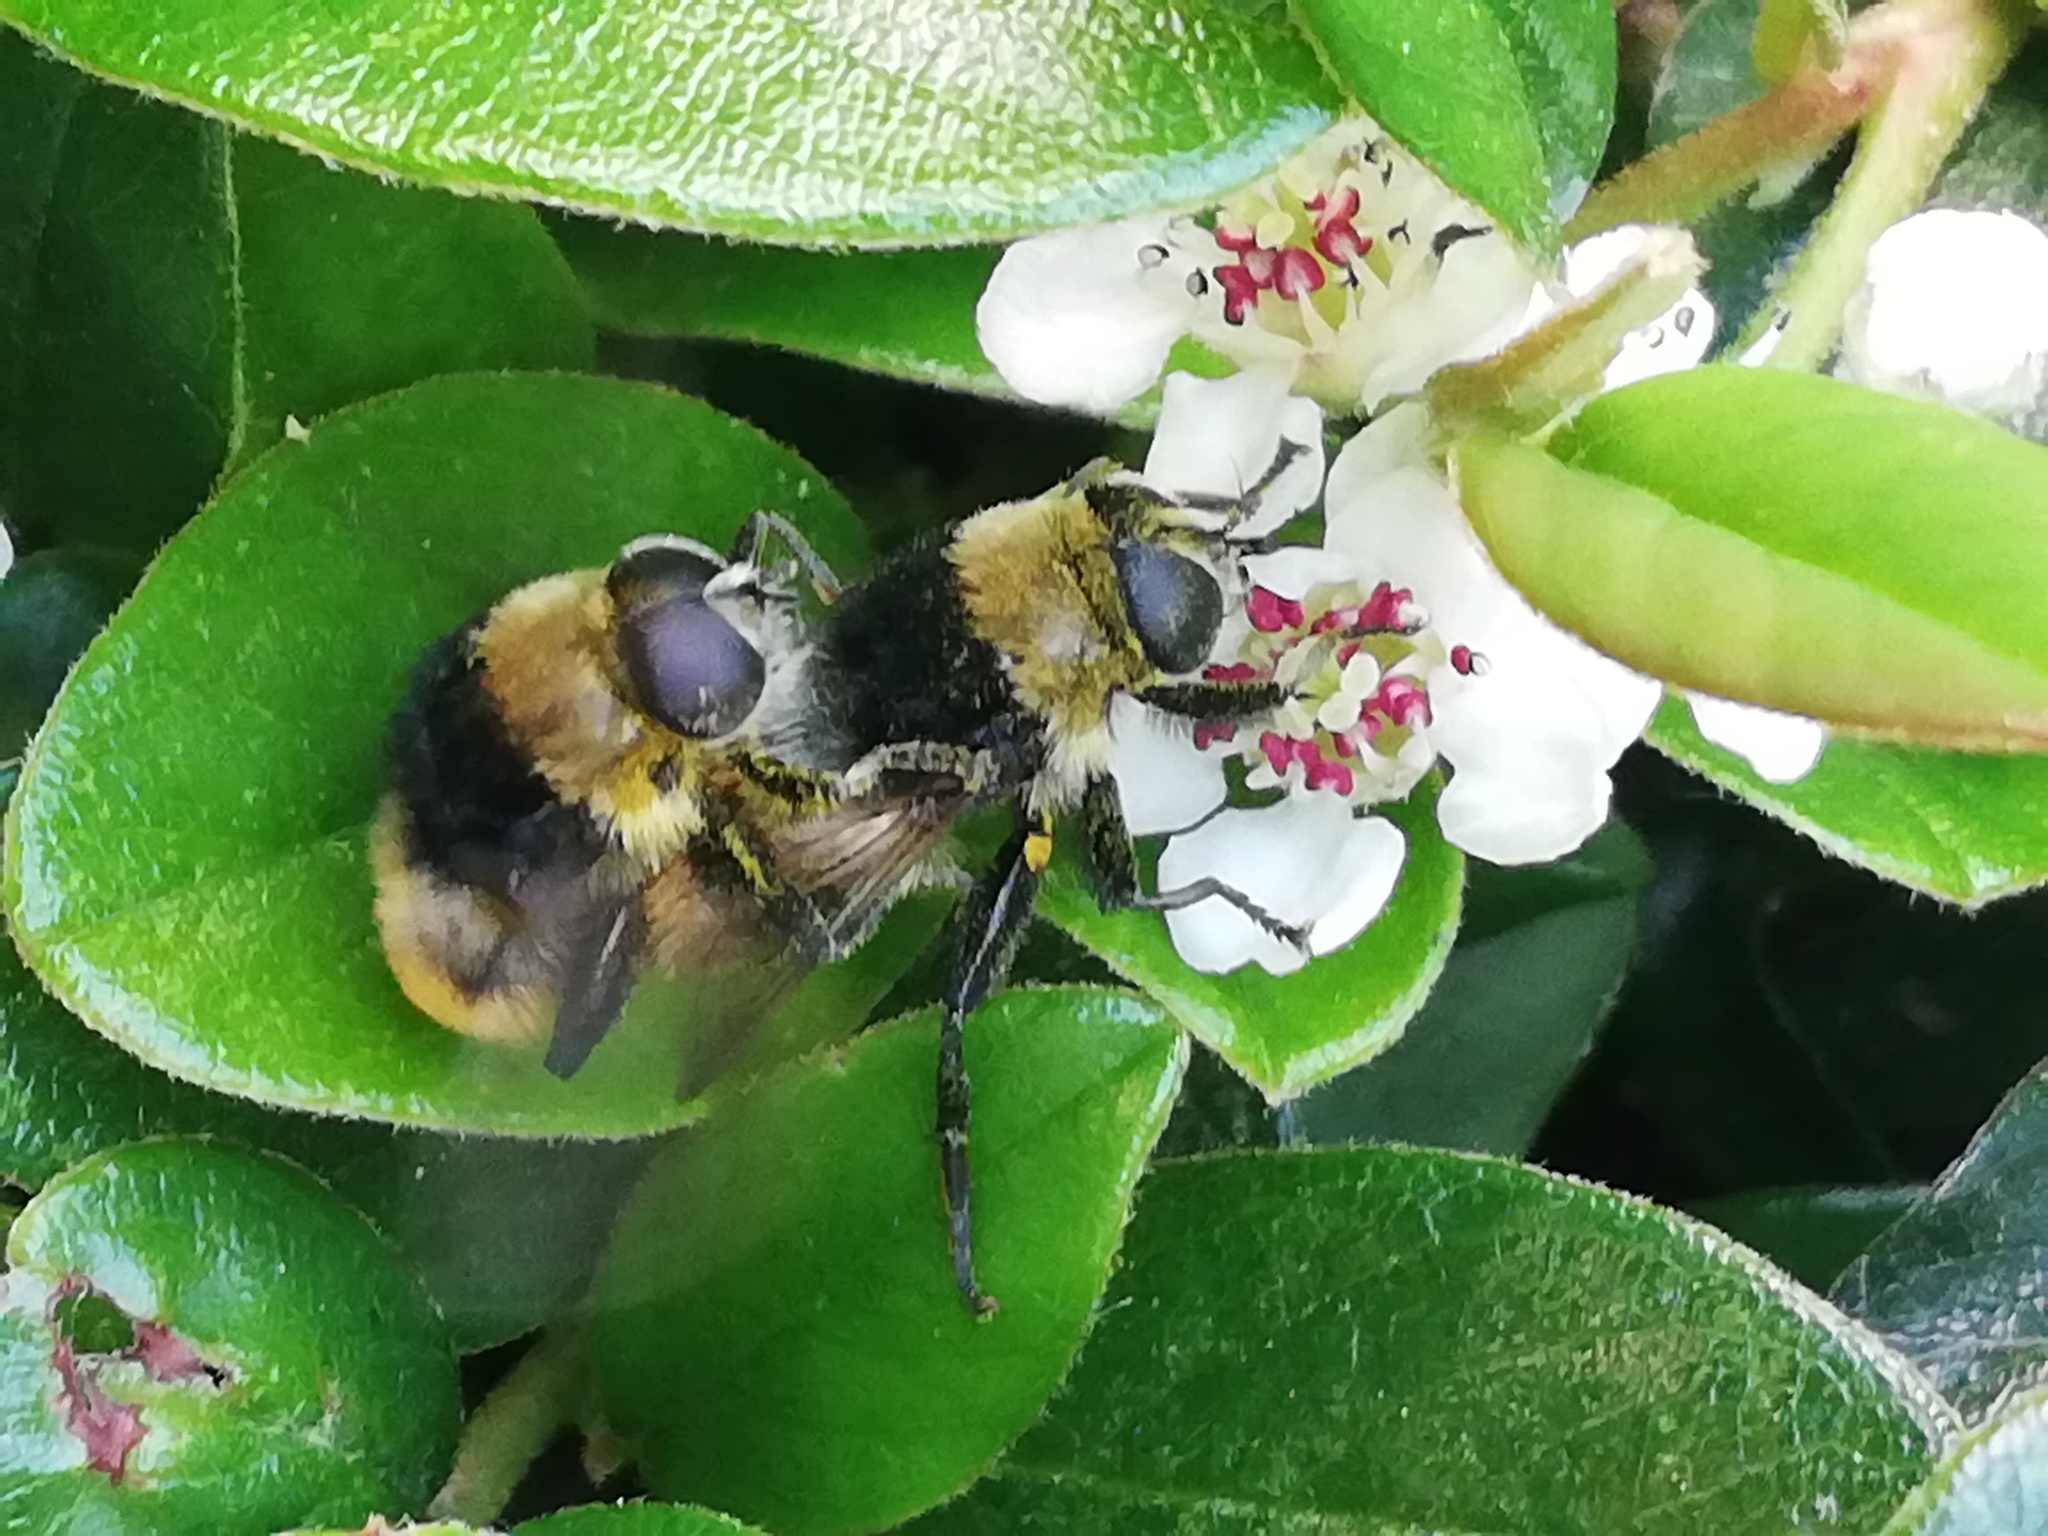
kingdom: Animalia
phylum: Arthropoda
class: Insecta
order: Diptera
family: Syrphidae
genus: Merodon
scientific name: Merodon equestris
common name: Greater bulb-fly
